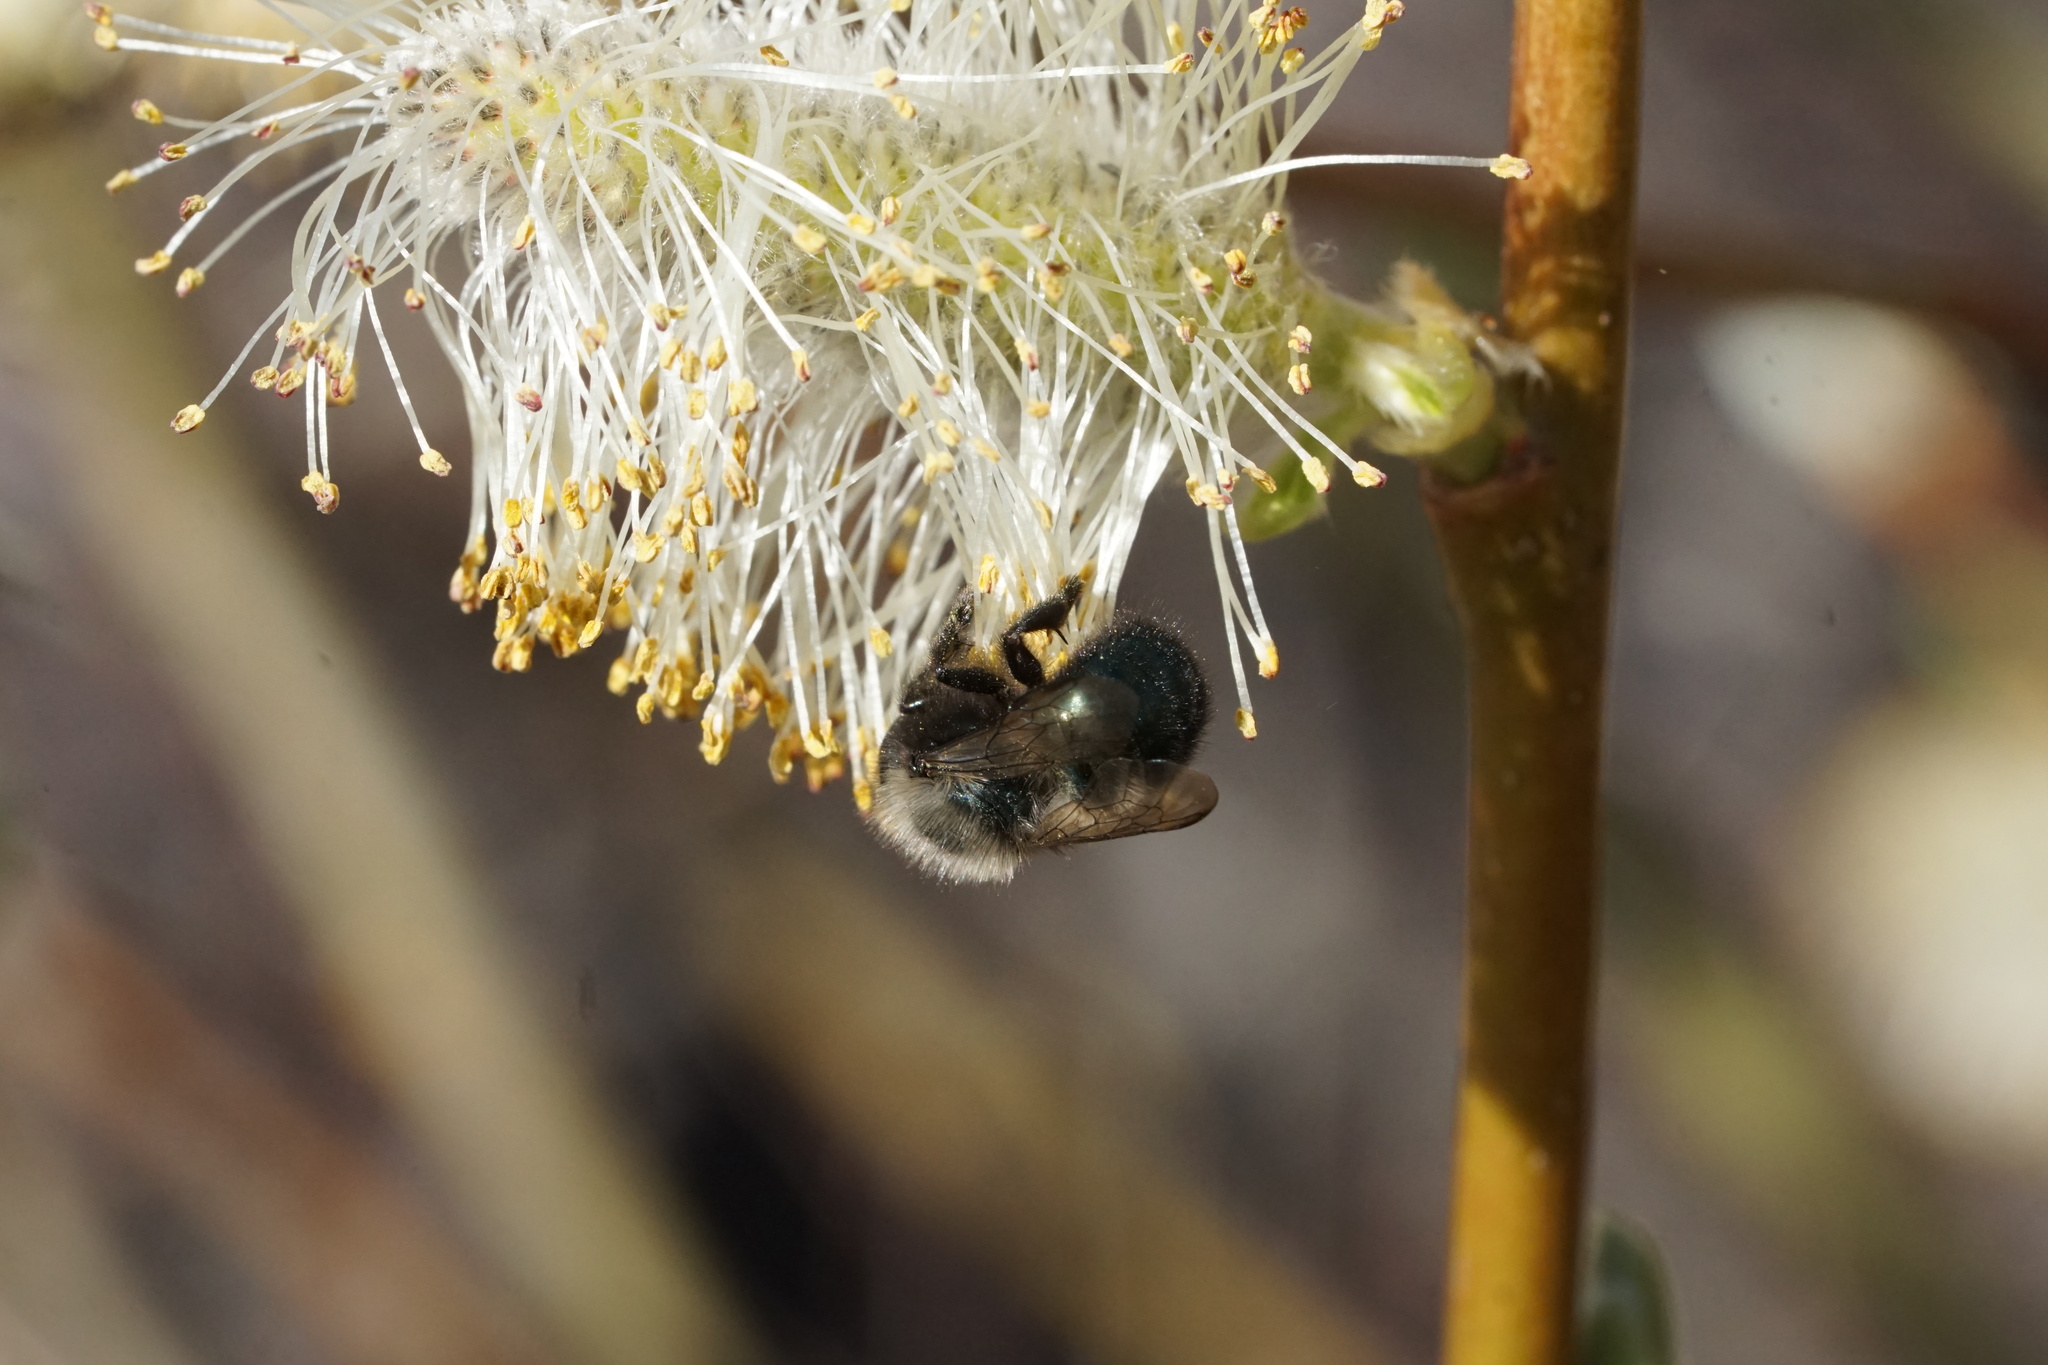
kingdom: Animalia
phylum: Arthropoda
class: Insecta
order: Hymenoptera
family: Megachilidae
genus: Osmia
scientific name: Osmia lignaria
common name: Blue orchard bee
